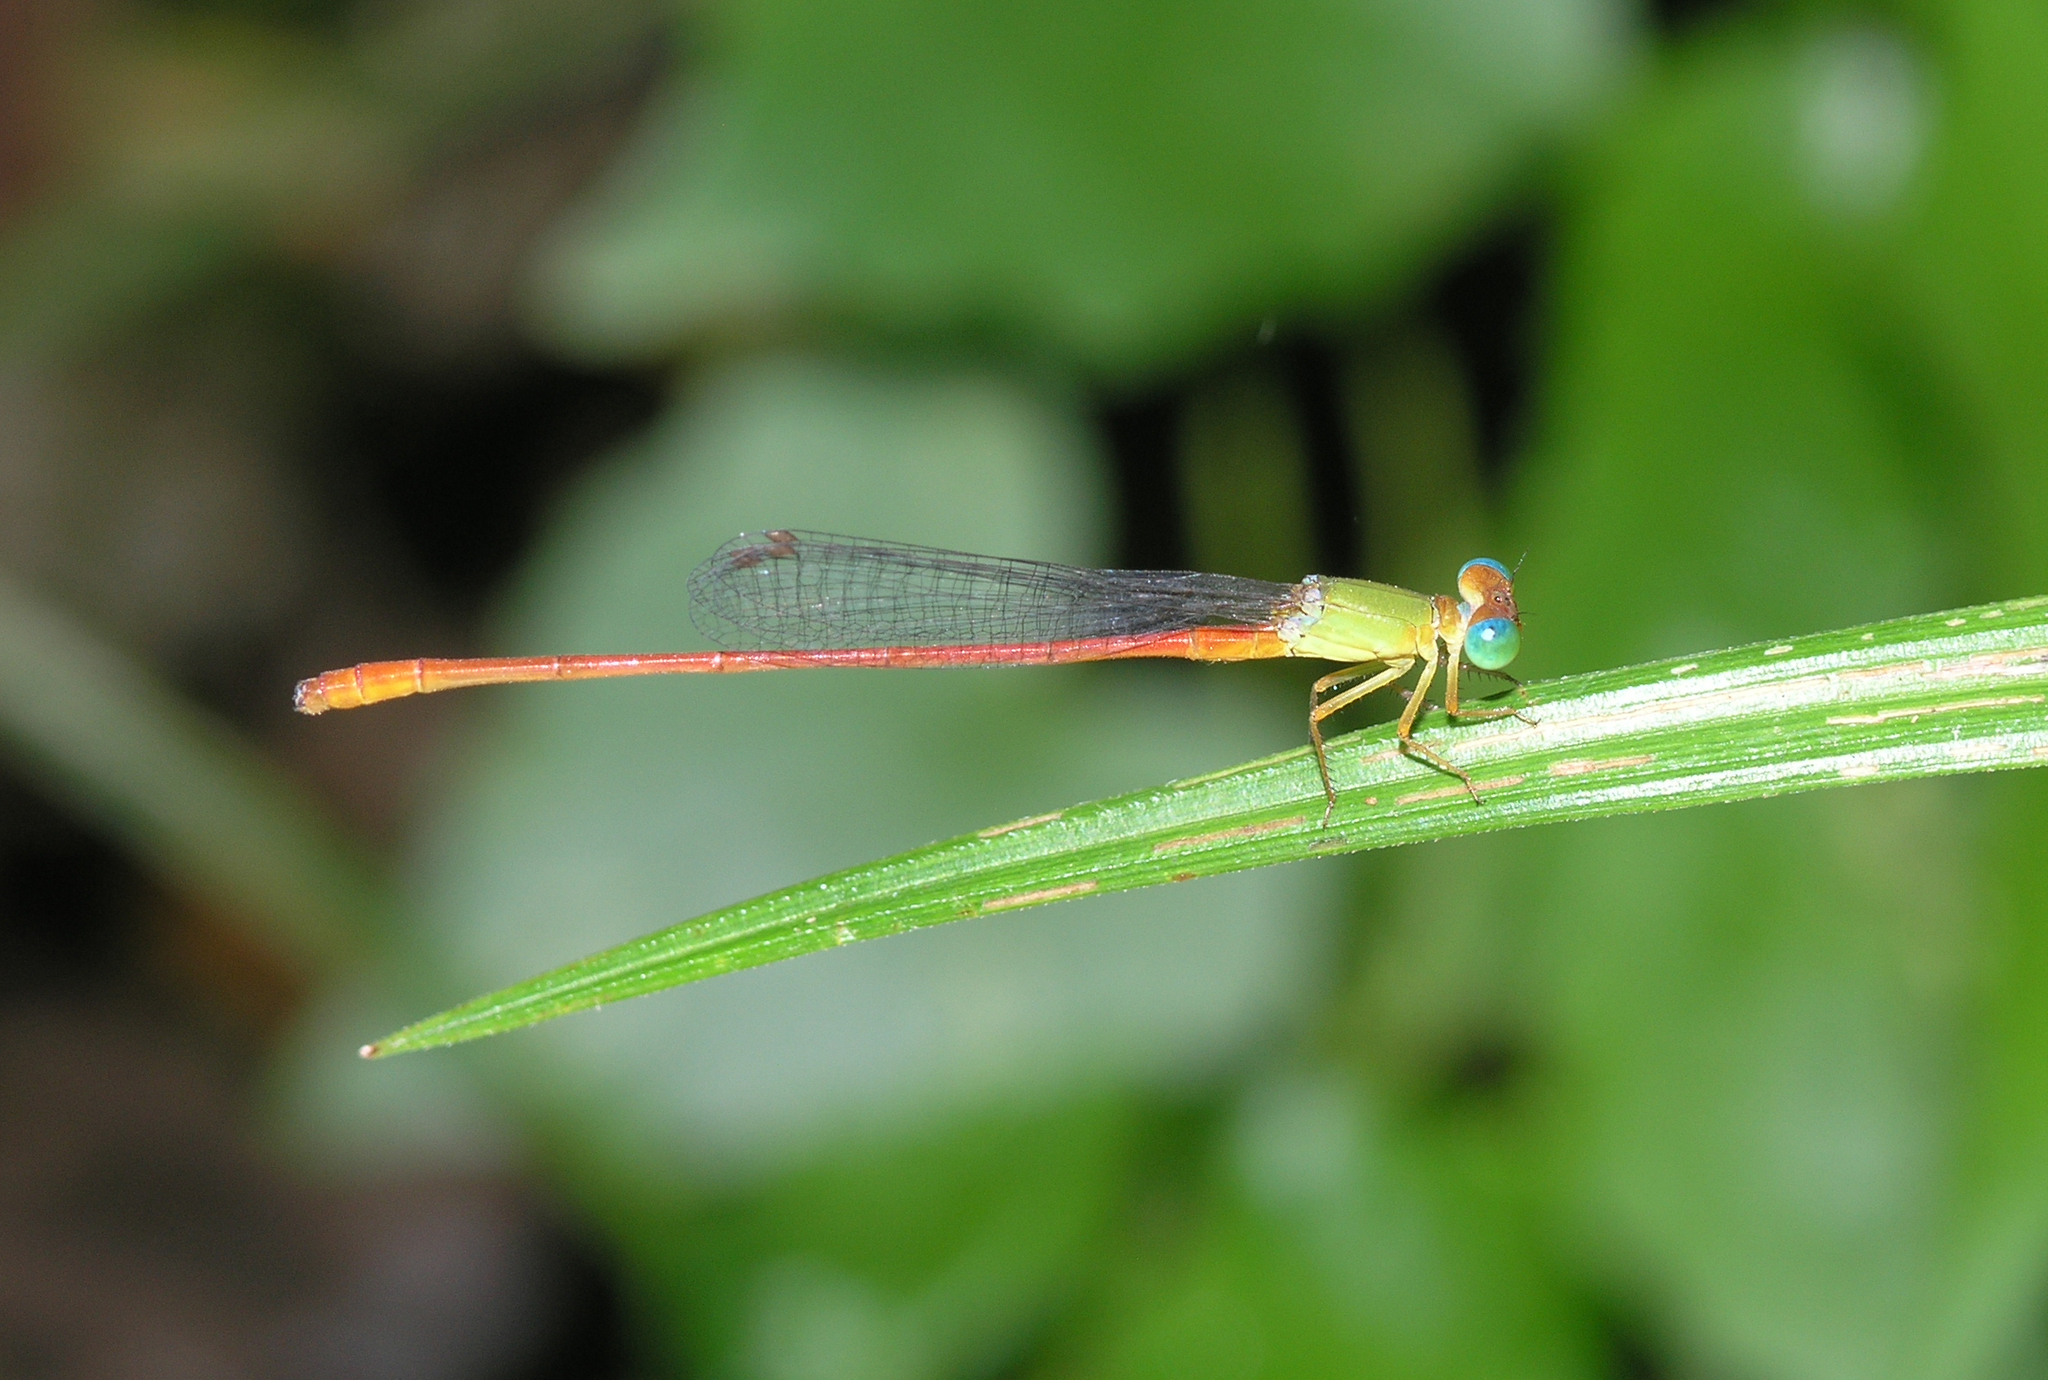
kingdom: Animalia
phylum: Arthropoda
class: Insecta
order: Odonata
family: Coenagrionidae
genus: Ceriagrion
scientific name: Ceriagrion auranticum
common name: Orange-tailed sprite
